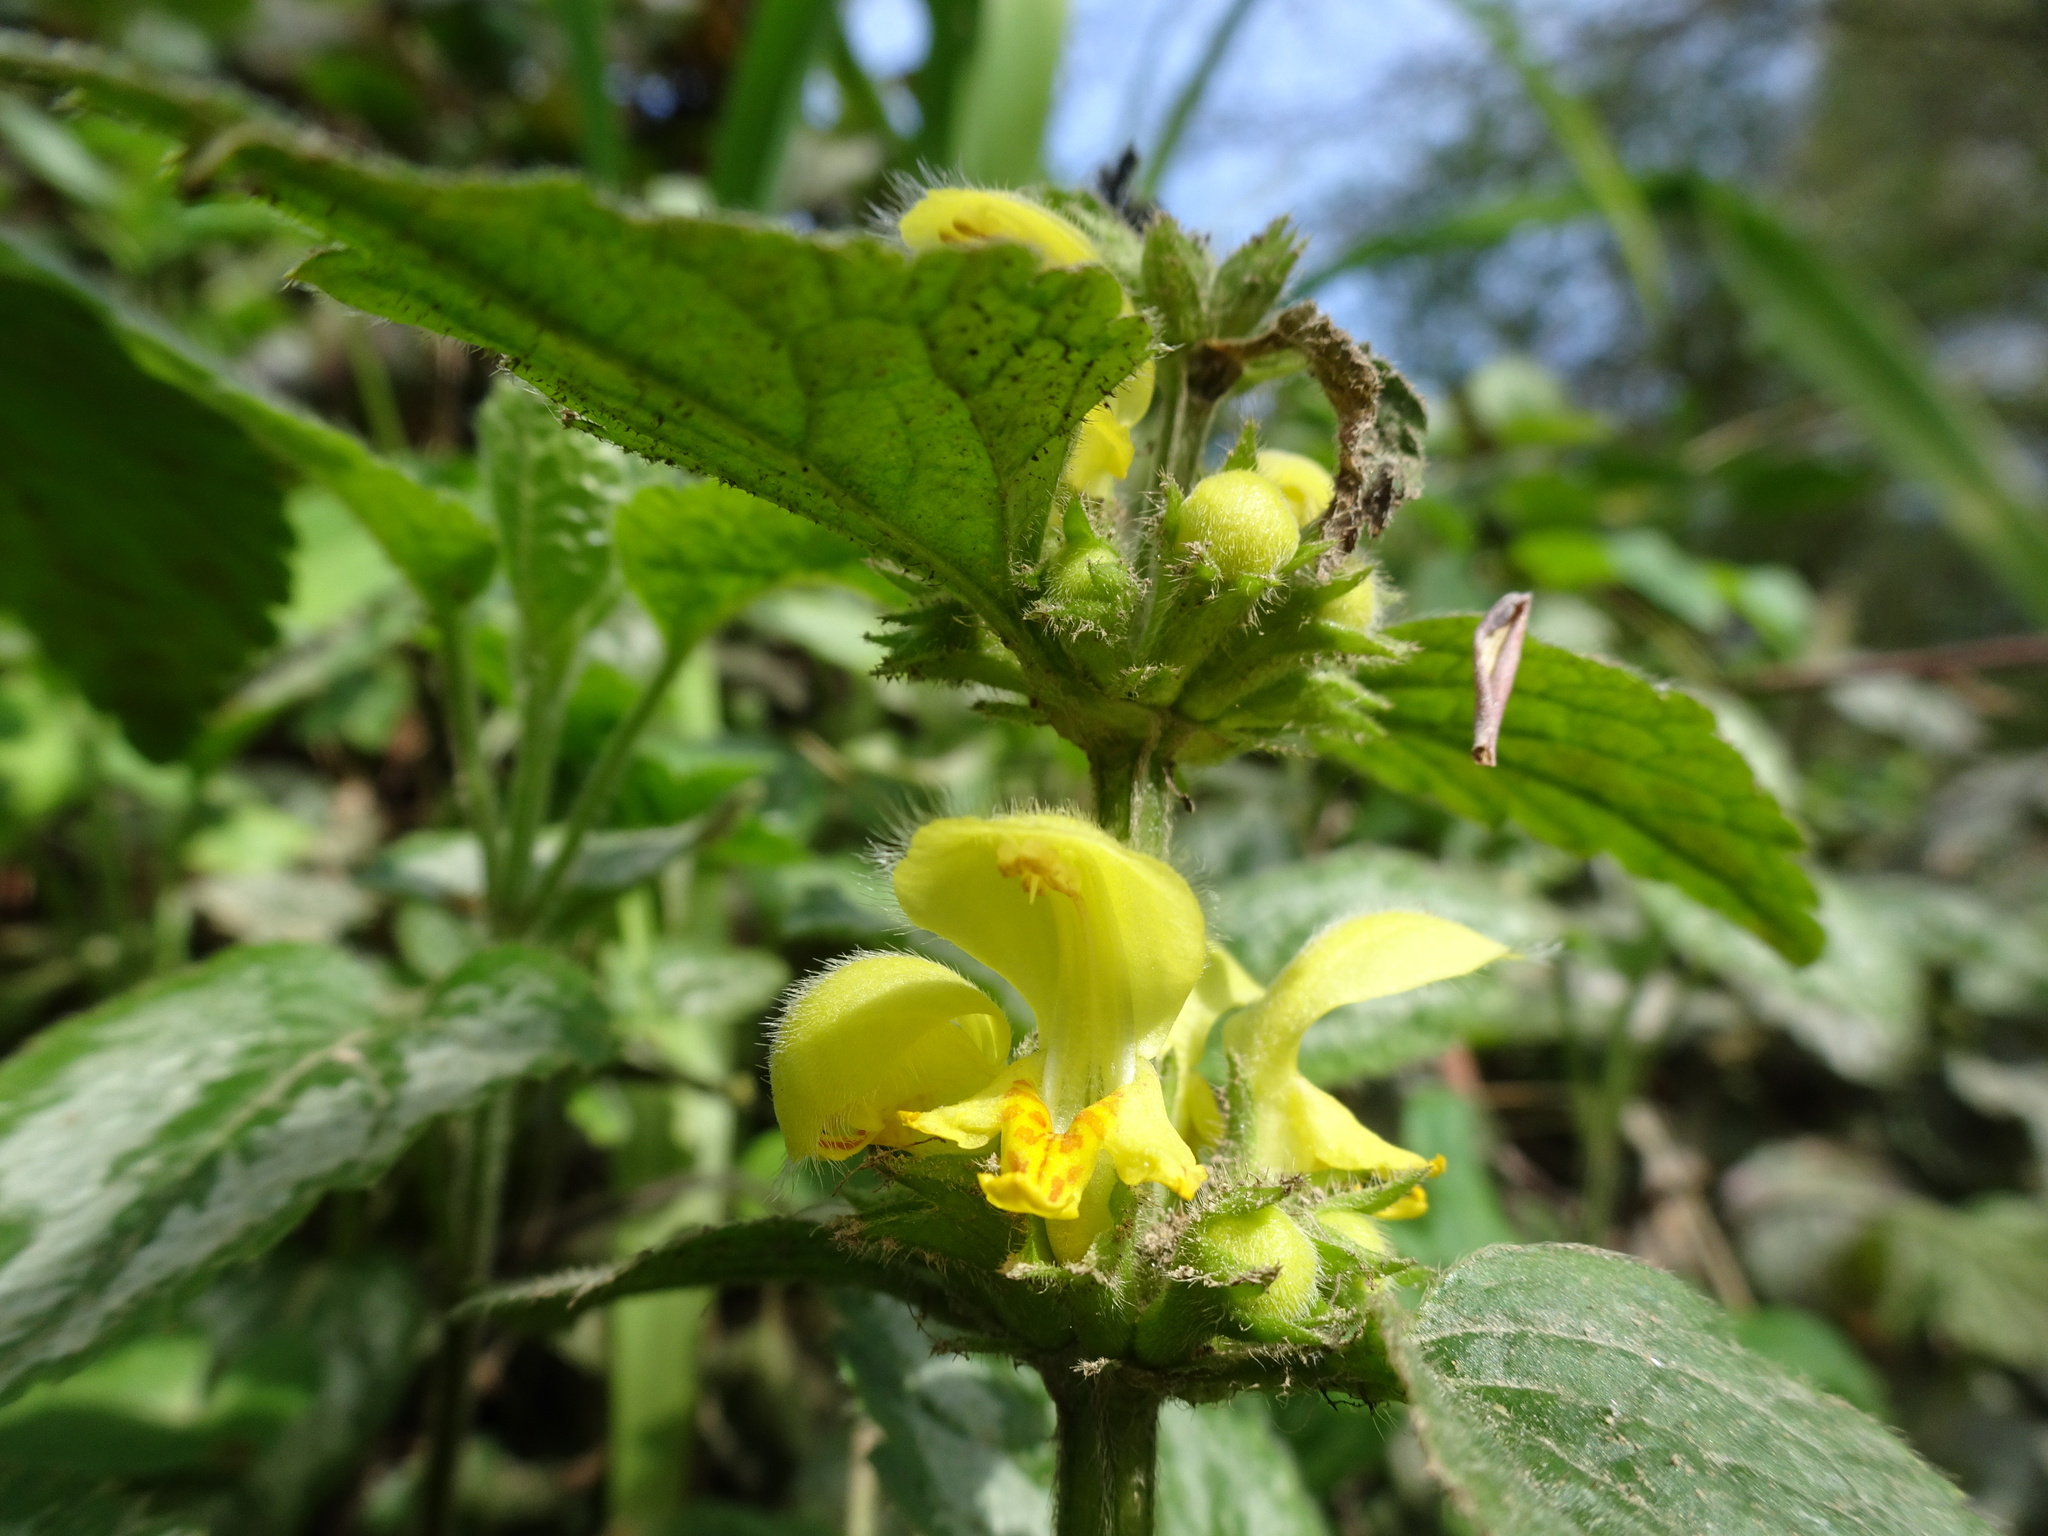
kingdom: Plantae
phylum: Tracheophyta
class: Magnoliopsida
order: Lamiales
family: Lamiaceae
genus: Lamium
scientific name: Lamium galeobdolon
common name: Yellow archangel
